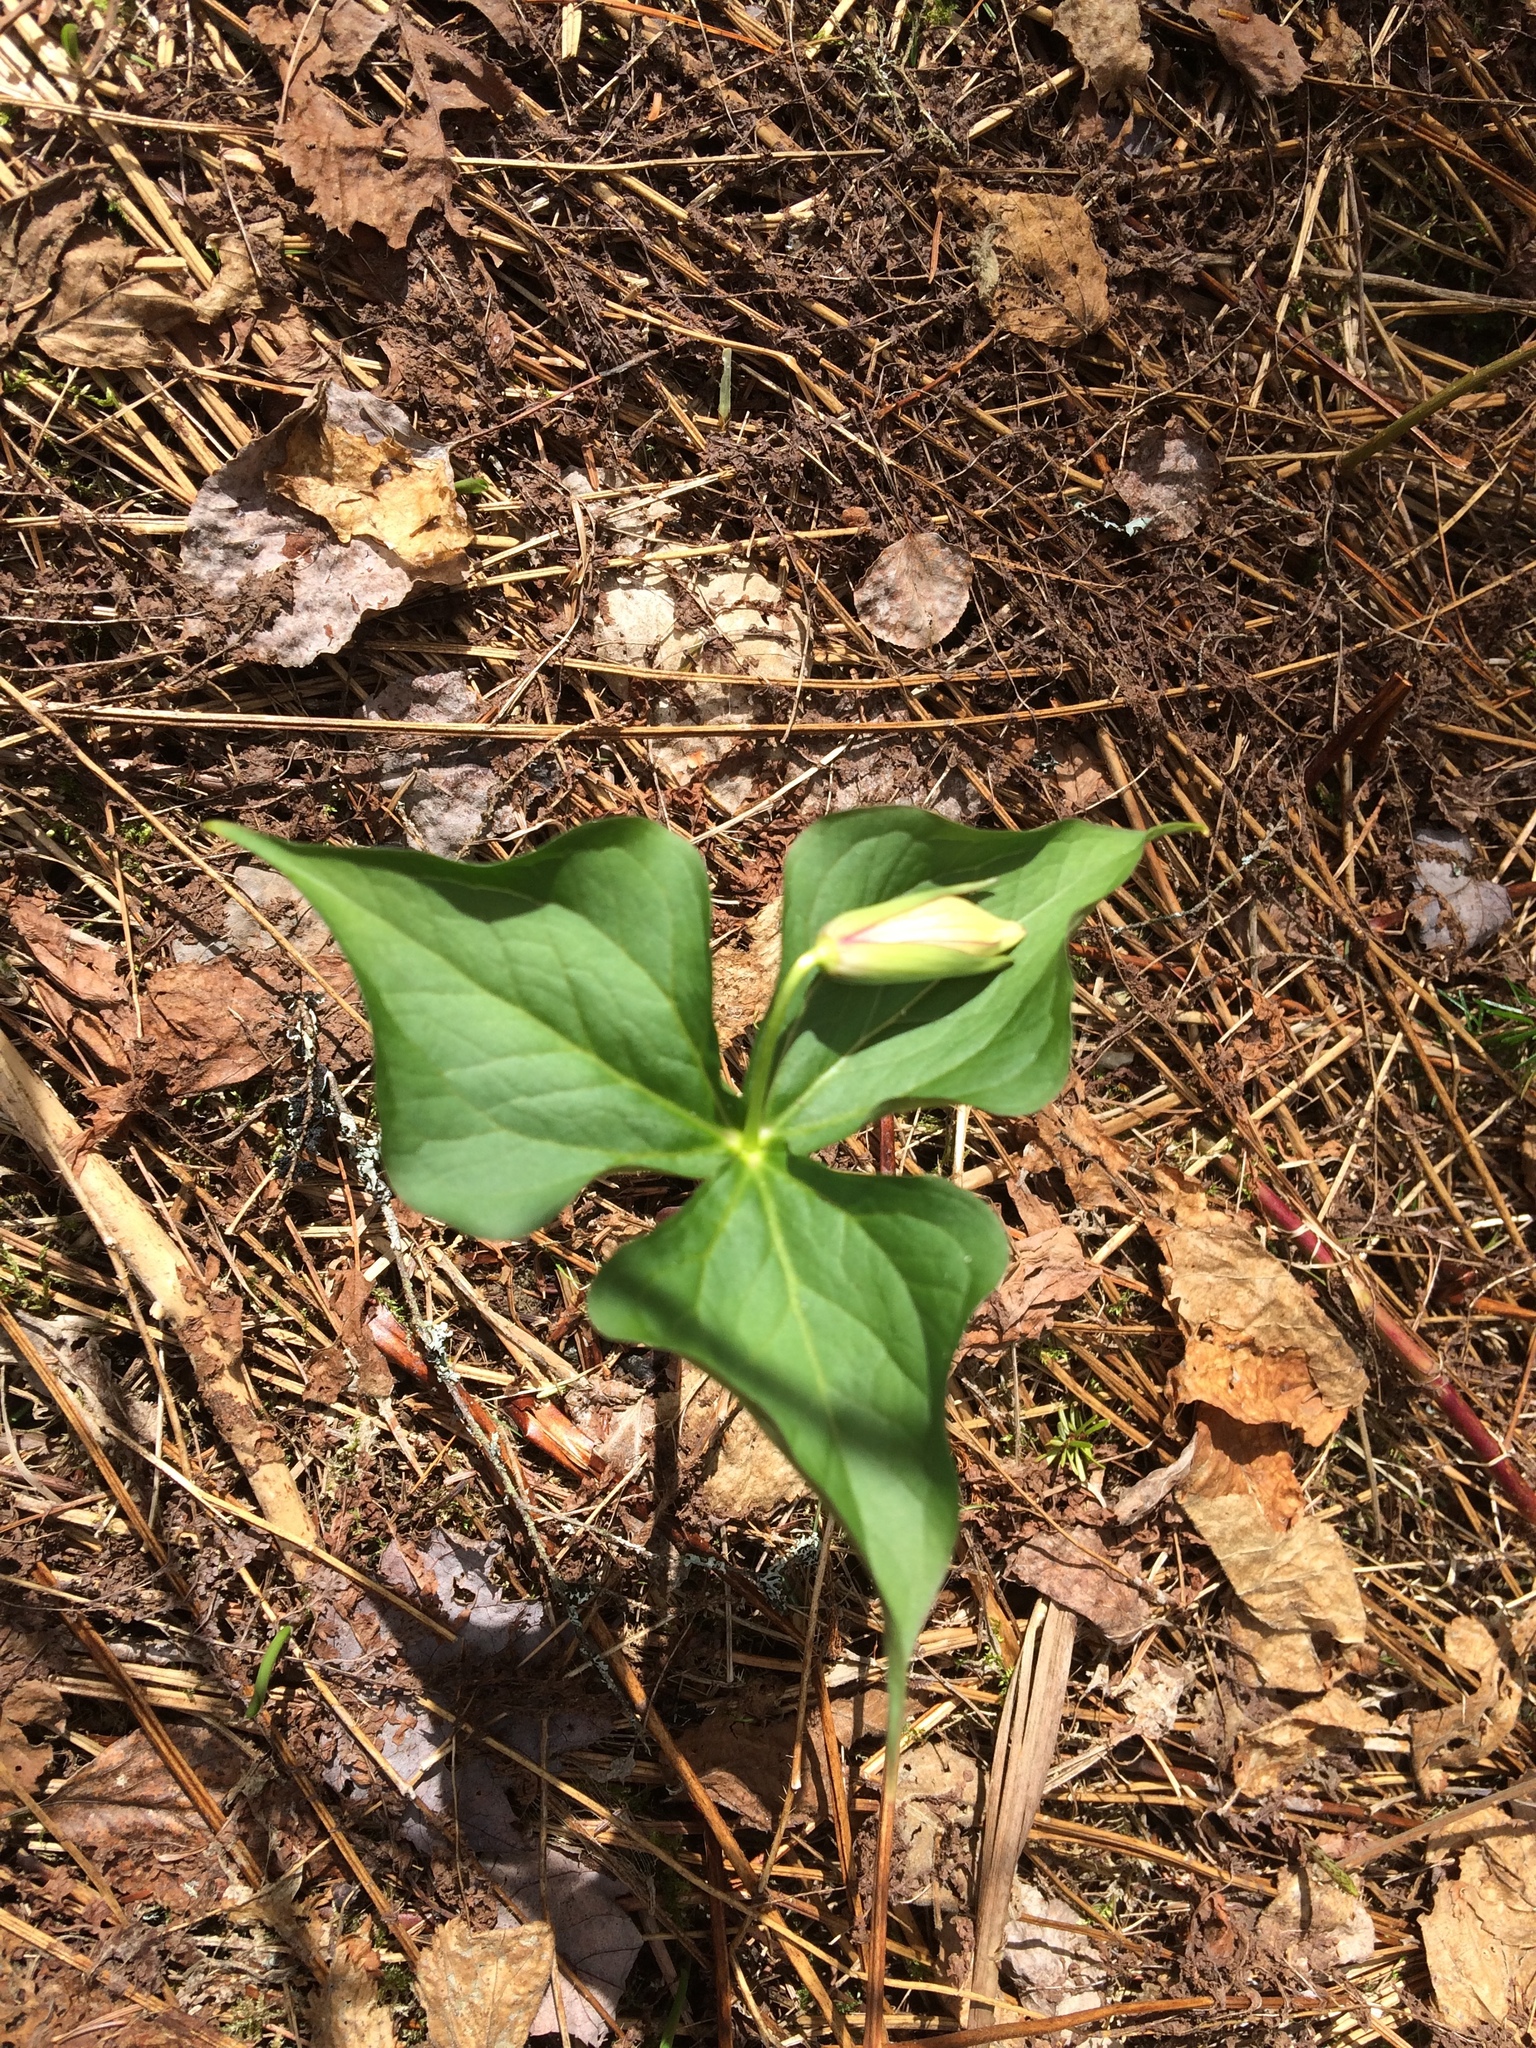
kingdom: Plantae
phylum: Tracheophyta
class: Liliopsida
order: Liliales
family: Melanthiaceae
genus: Trillium
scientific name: Trillium erectum
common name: Purple trillium
